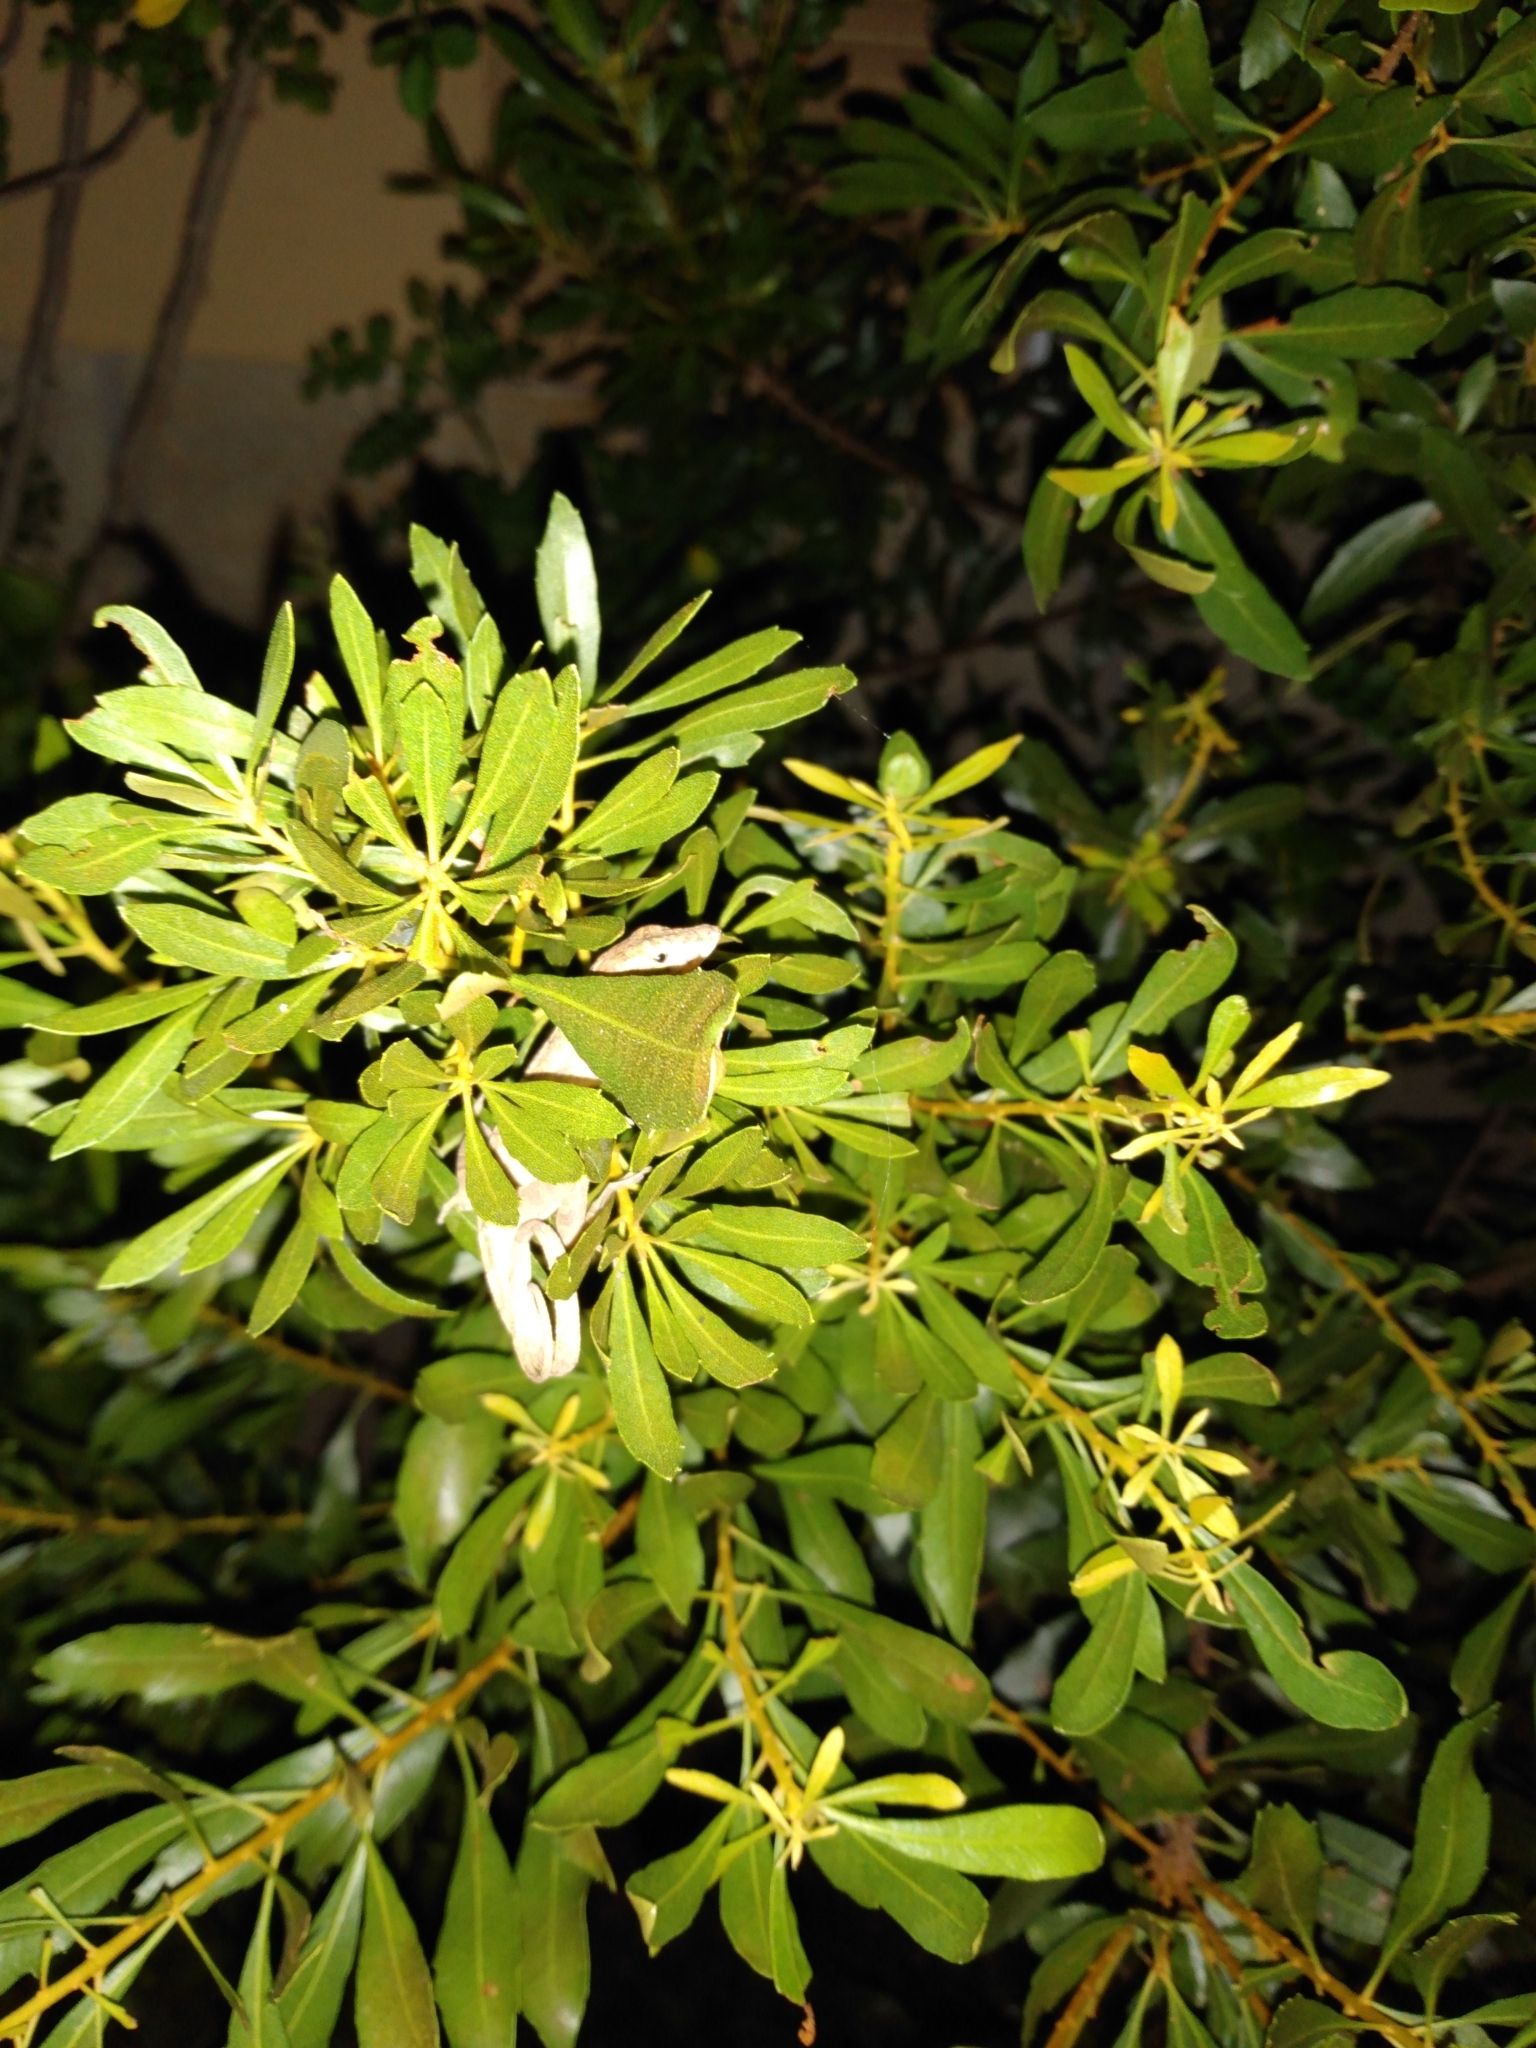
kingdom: Animalia
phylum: Chordata
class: Squamata
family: Dactyloidae
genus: Anolis
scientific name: Anolis sagrei
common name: Brown anole
